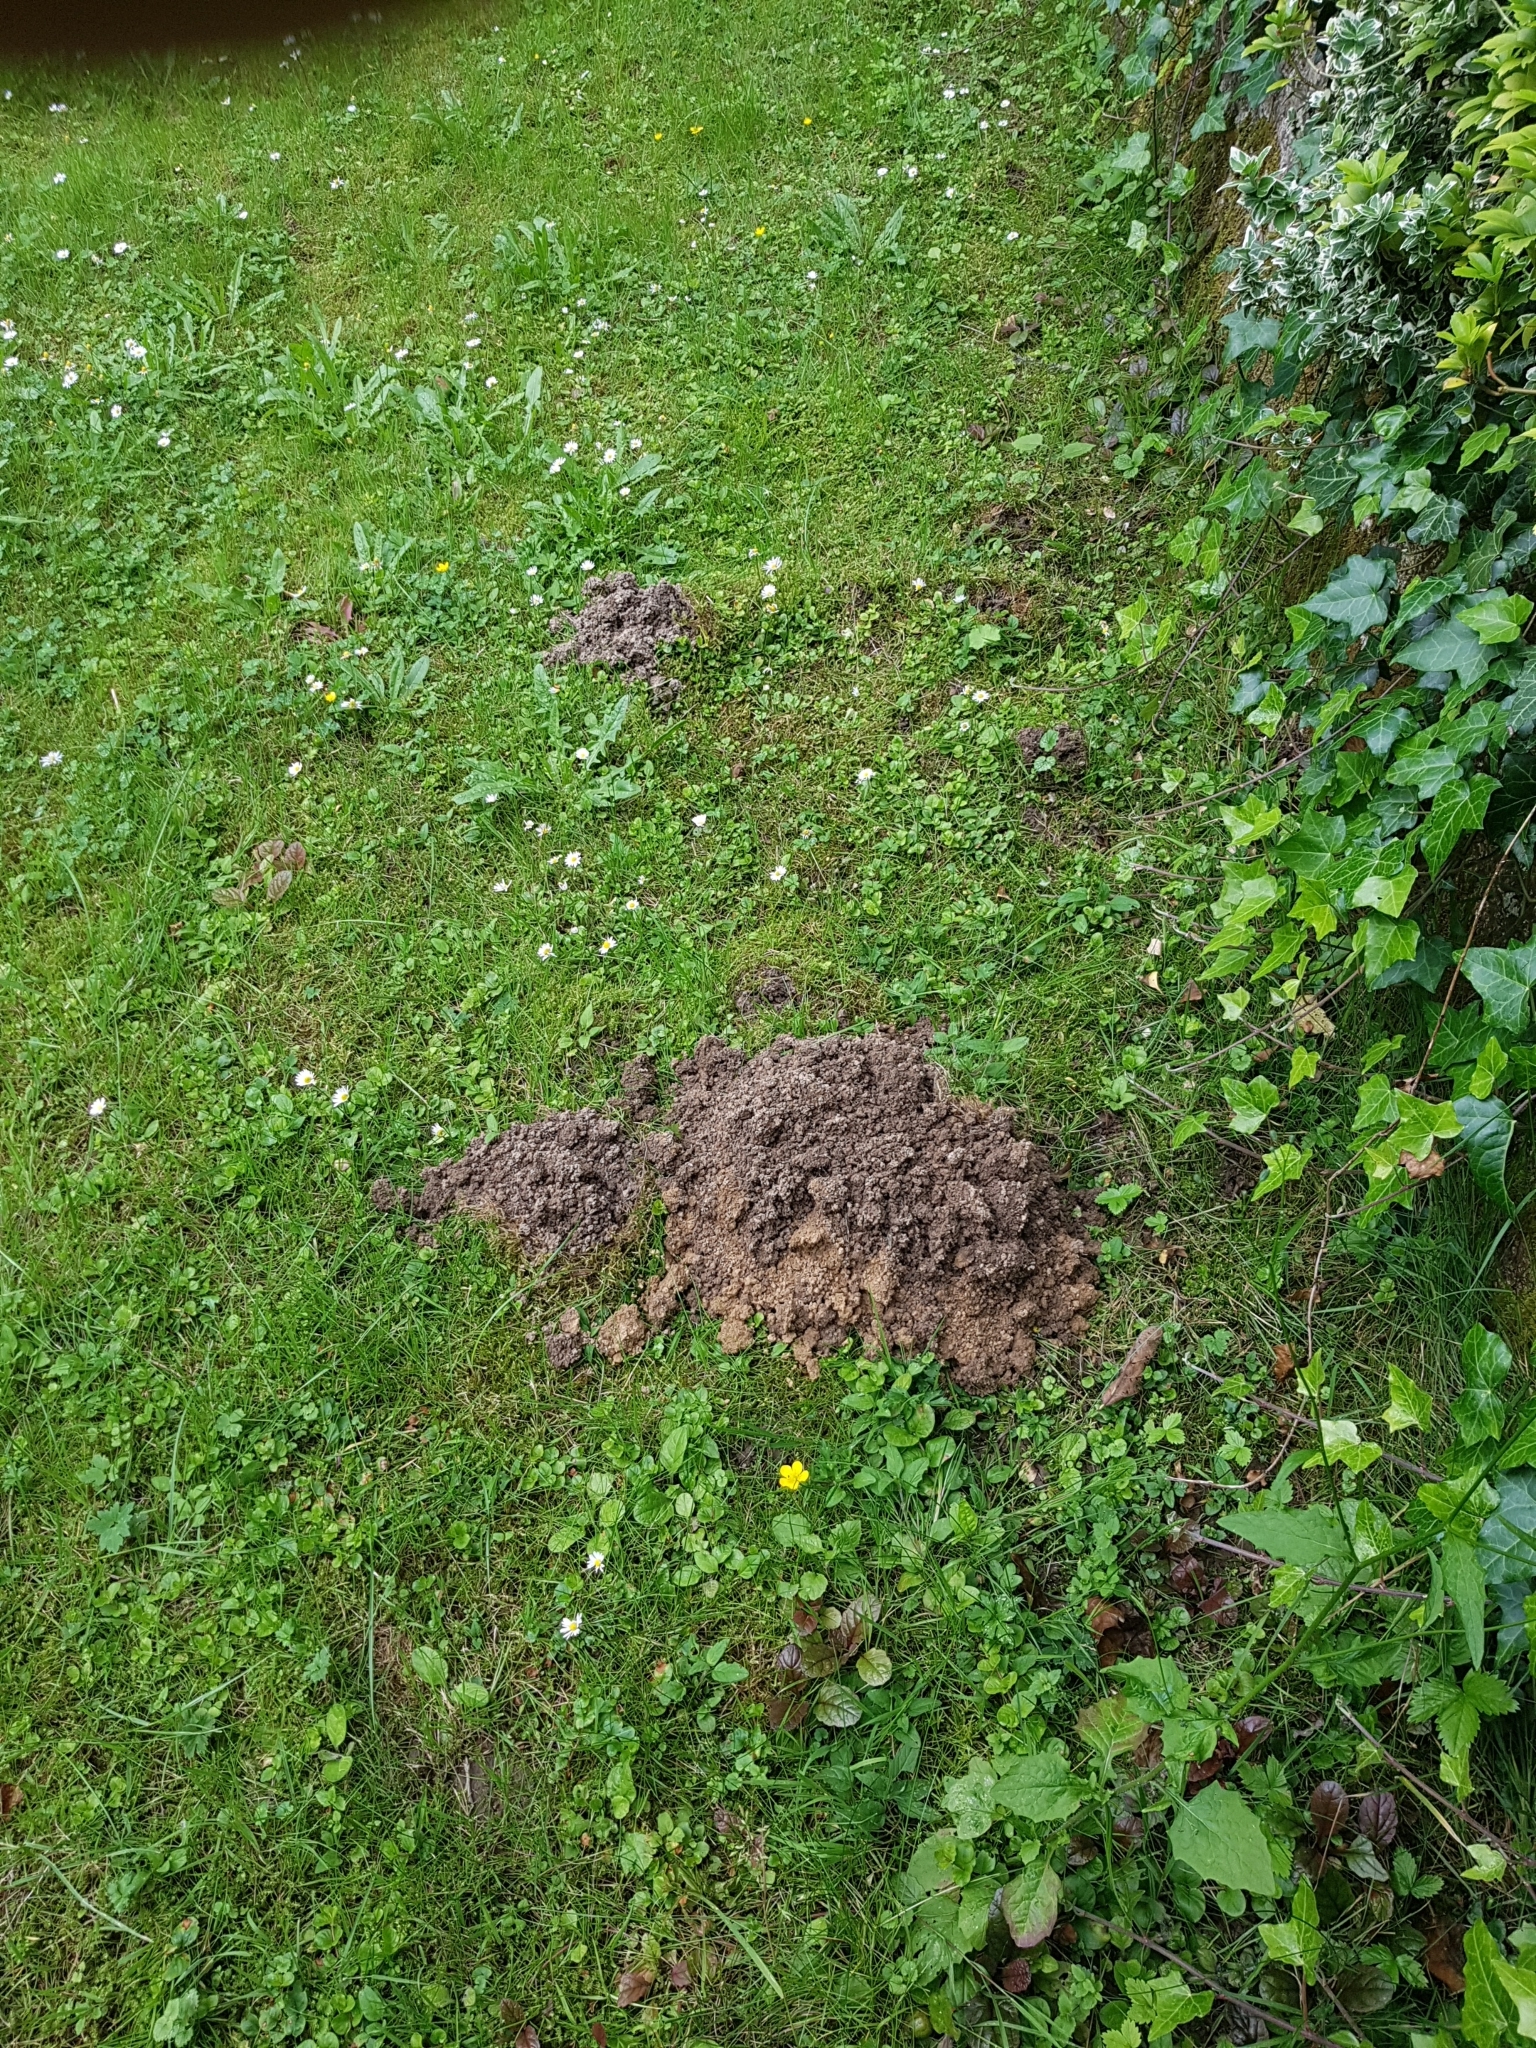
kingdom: Animalia
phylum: Chordata
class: Mammalia
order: Soricomorpha
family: Talpidae
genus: Talpa
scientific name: Talpa europaea
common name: European mole
